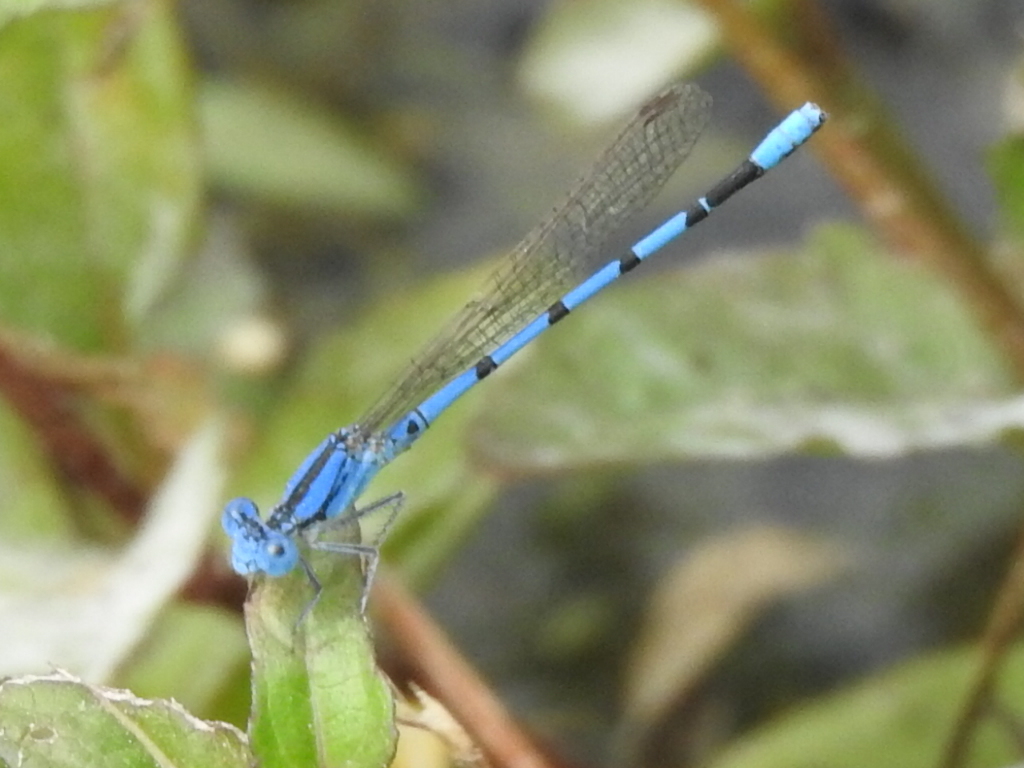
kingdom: Animalia
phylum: Arthropoda
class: Insecta
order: Odonata
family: Coenagrionidae
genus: Argia
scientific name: Argia nahuana
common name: Aztec dancer
